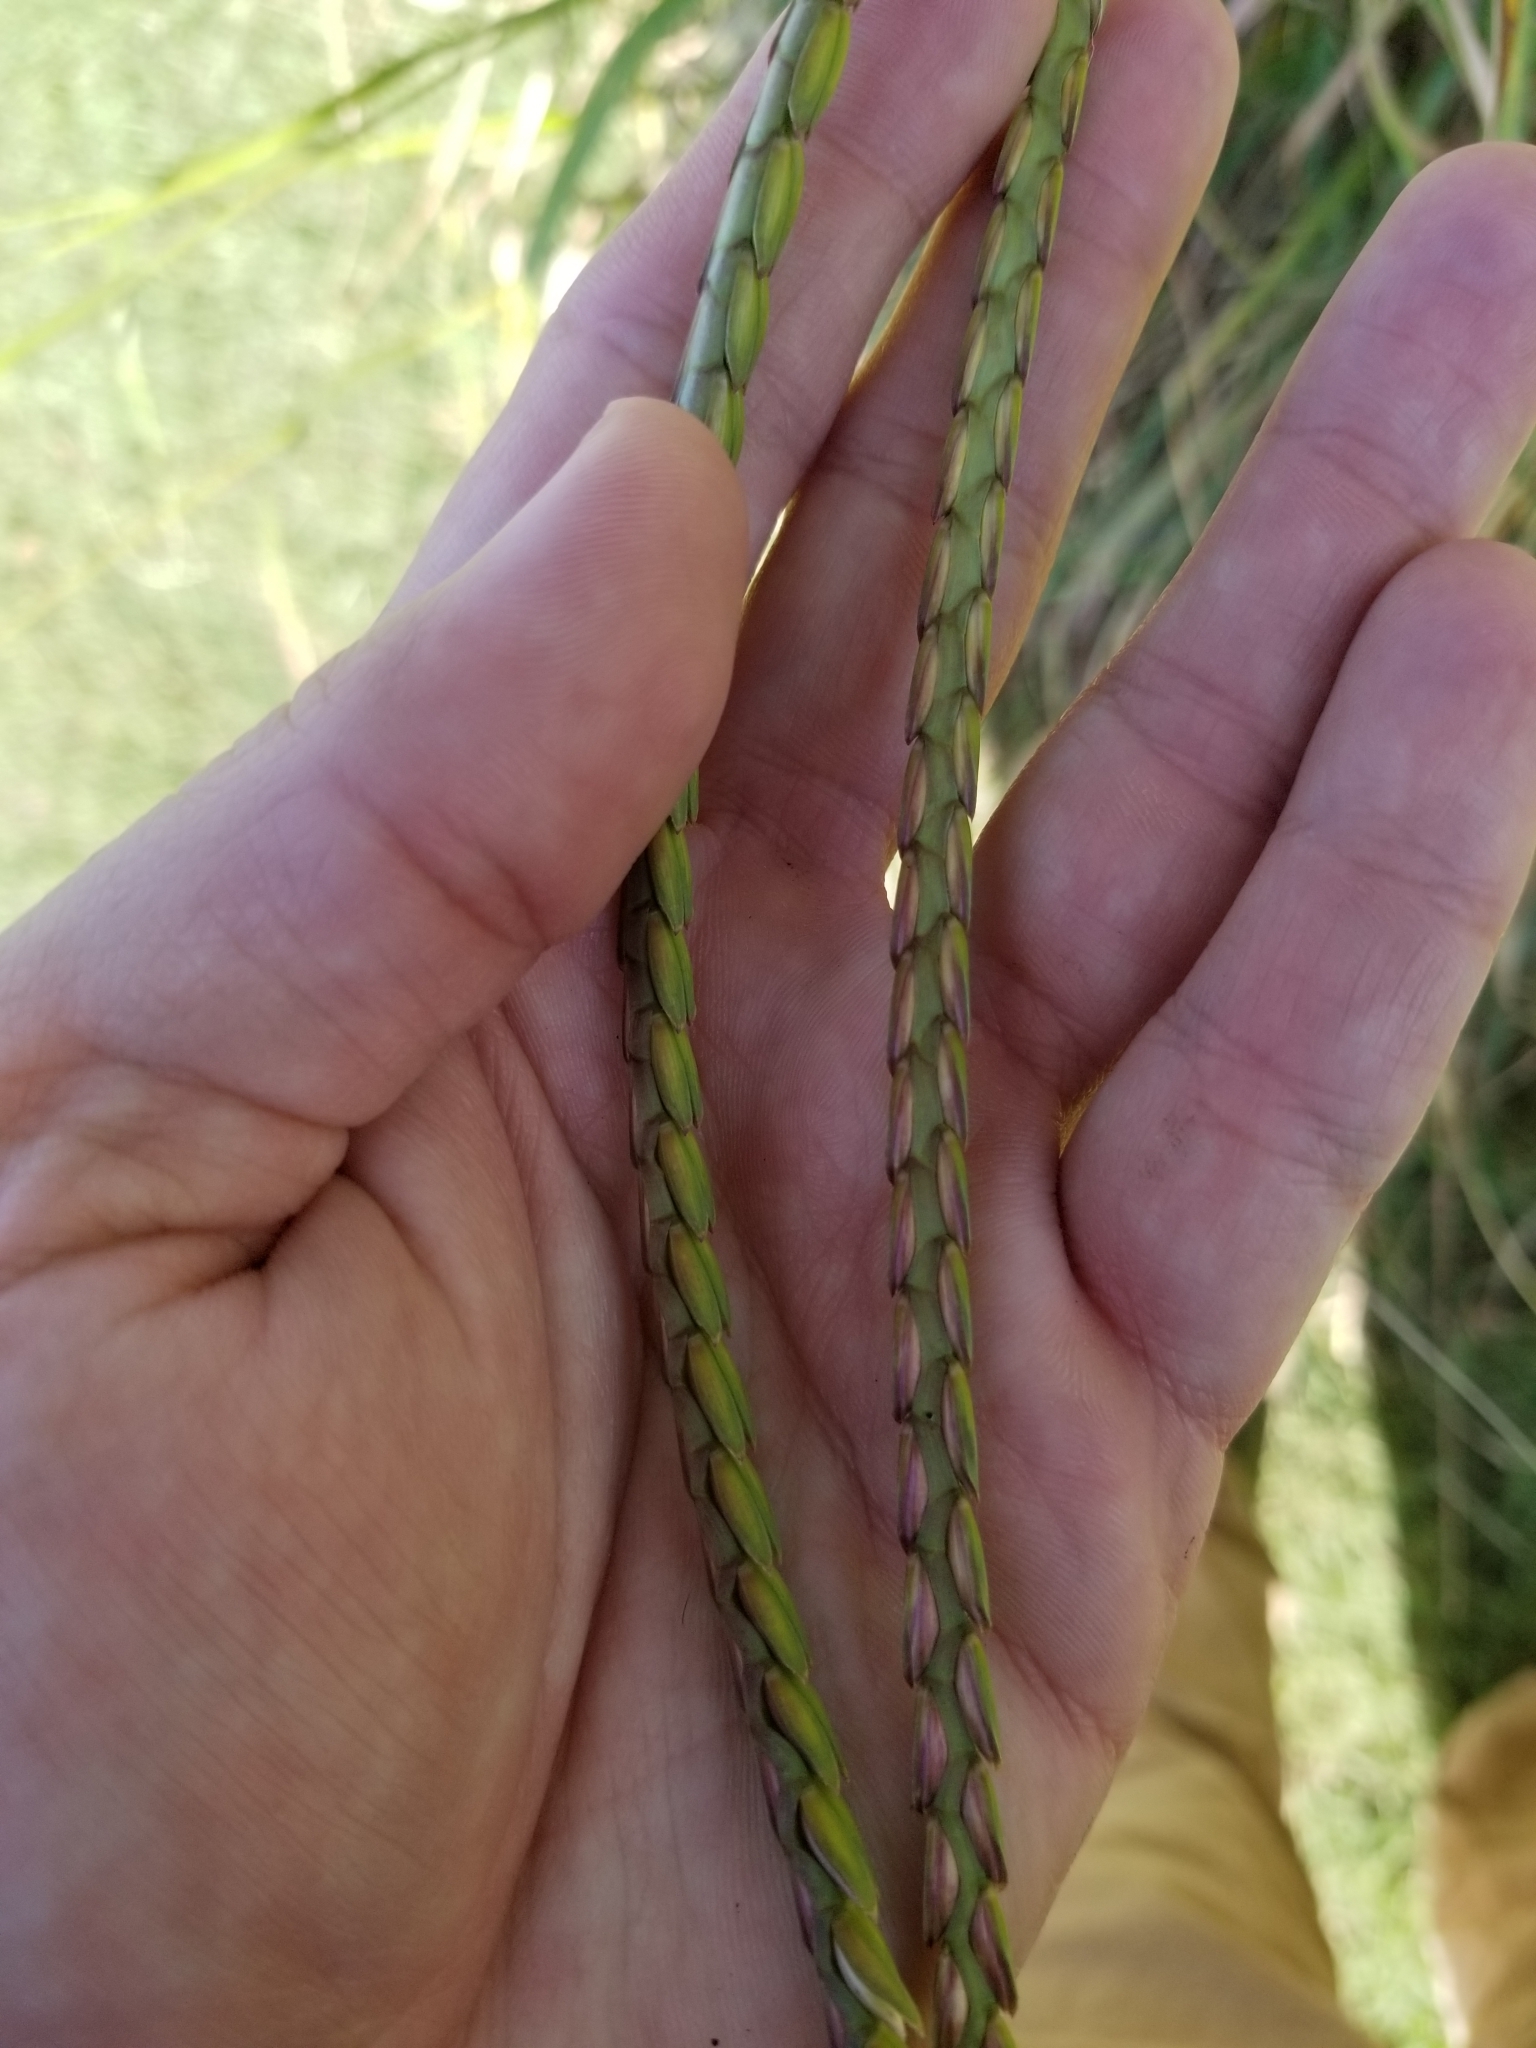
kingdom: Plantae
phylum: Tracheophyta
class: Liliopsida
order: Poales
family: Poaceae
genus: Tripsacum
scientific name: Tripsacum dactyloides
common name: Buffalo-grass
